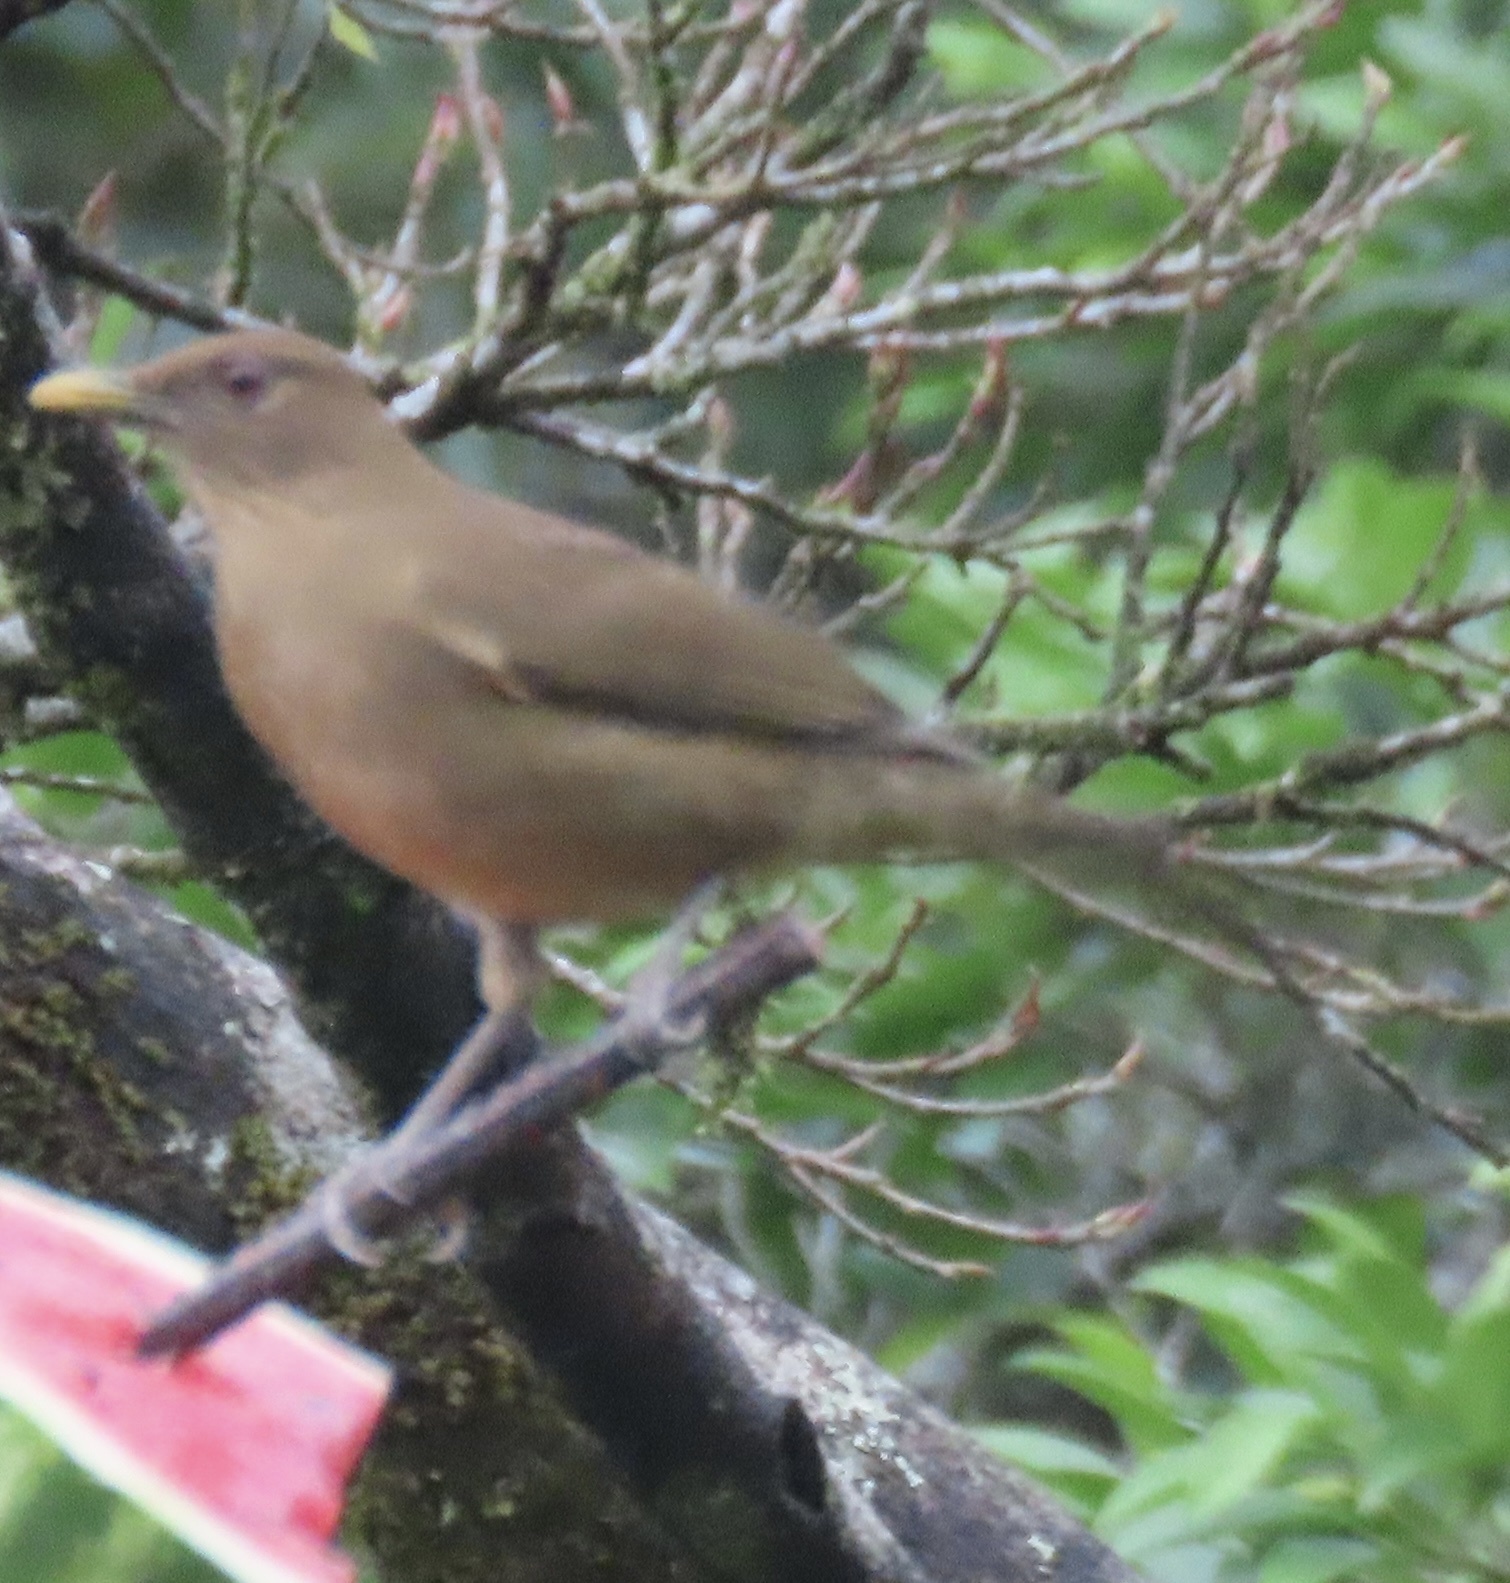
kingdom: Animalia
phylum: Chordata
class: Aves
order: Passeriformes
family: Turdidae
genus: Turdus
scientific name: Turdus grayi
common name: Clay-colored thrush
